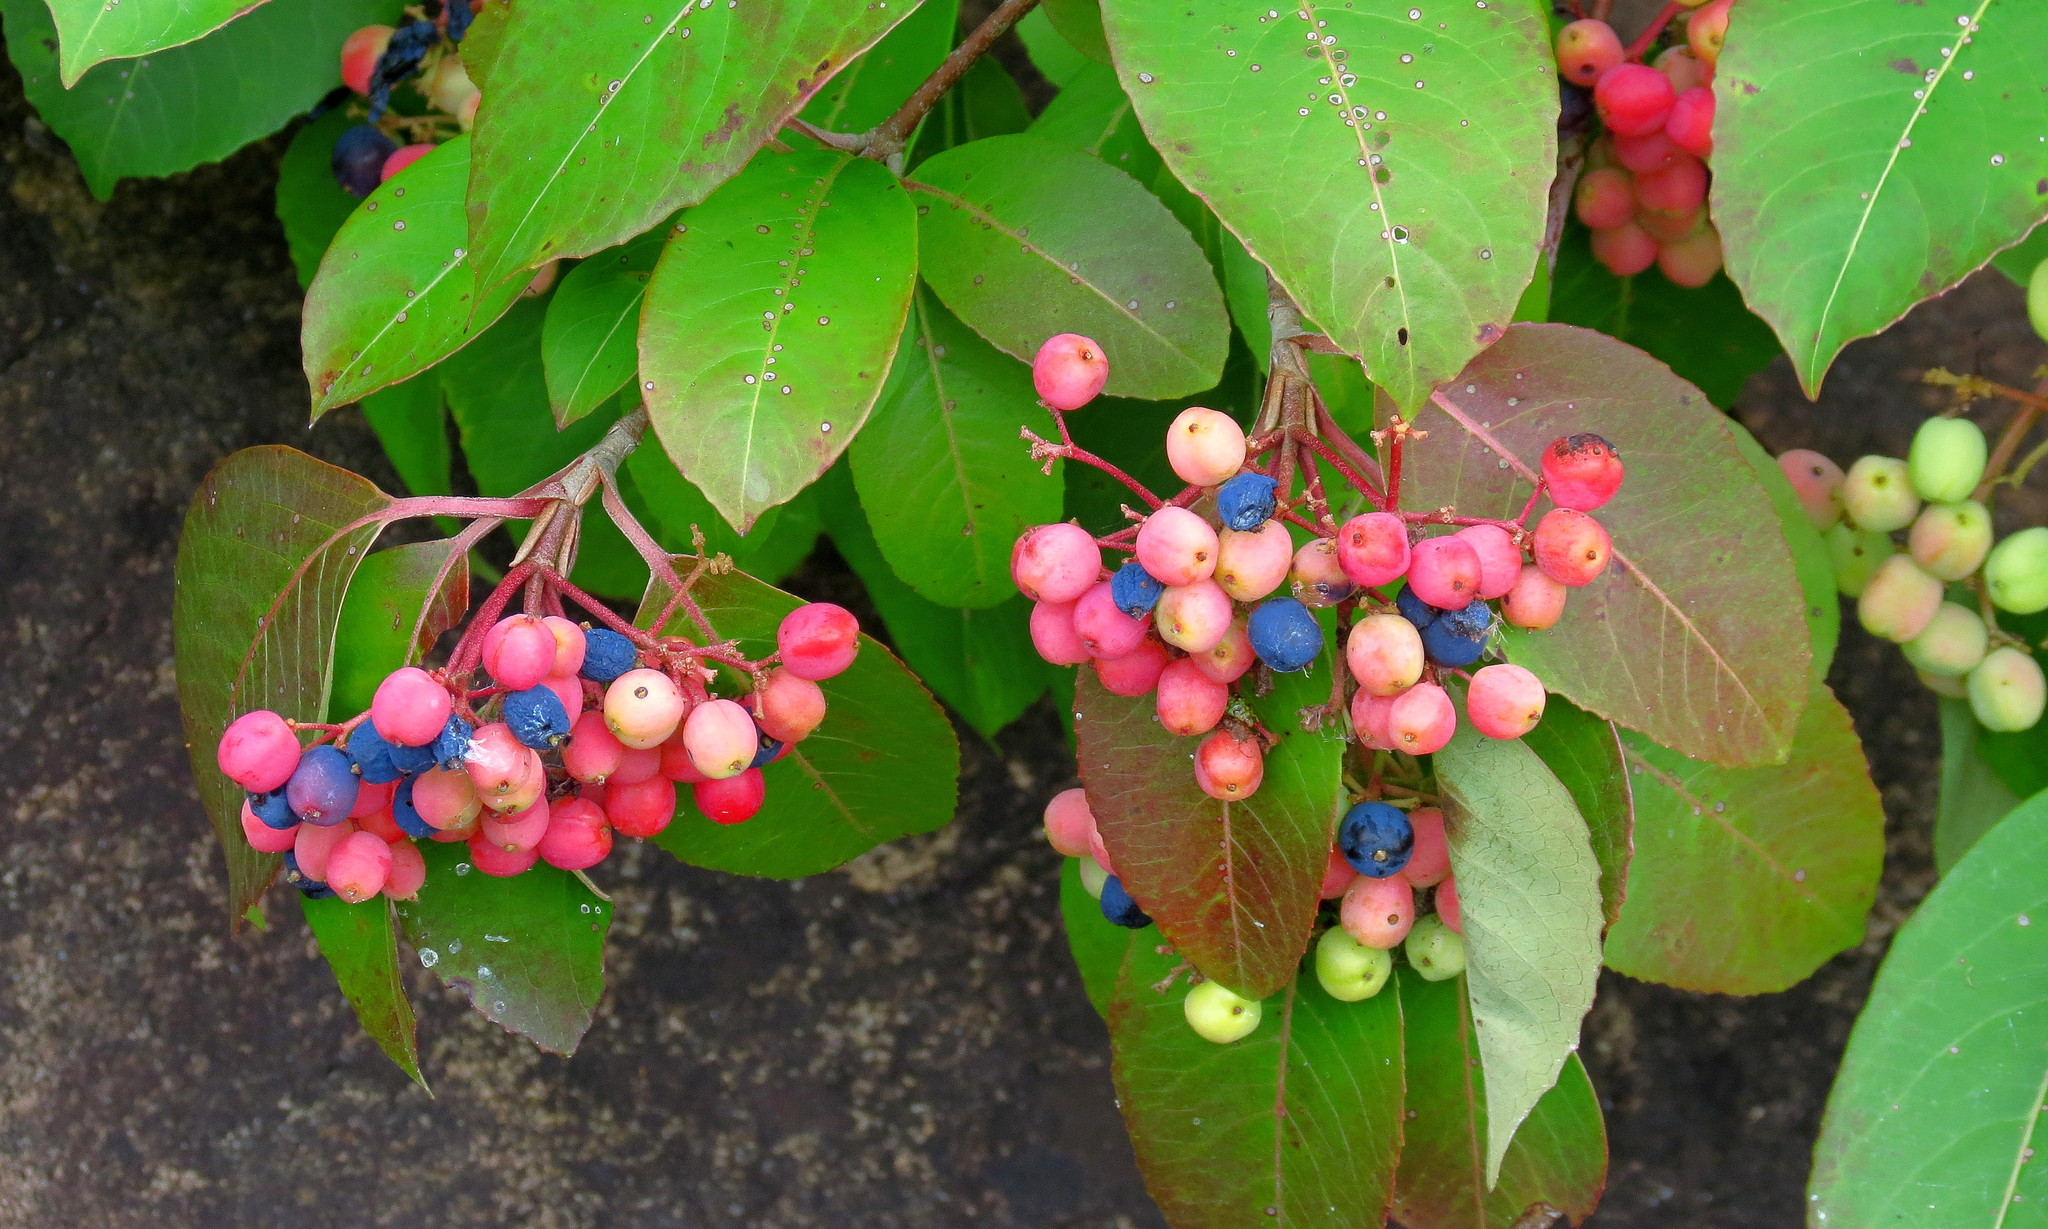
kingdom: Plantae
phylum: Tracheophyta
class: Magnoliopsida
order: Dipsacales
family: Viburnaceae
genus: Viburnum
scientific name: Viburnum cassinoides
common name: Swamp haw
